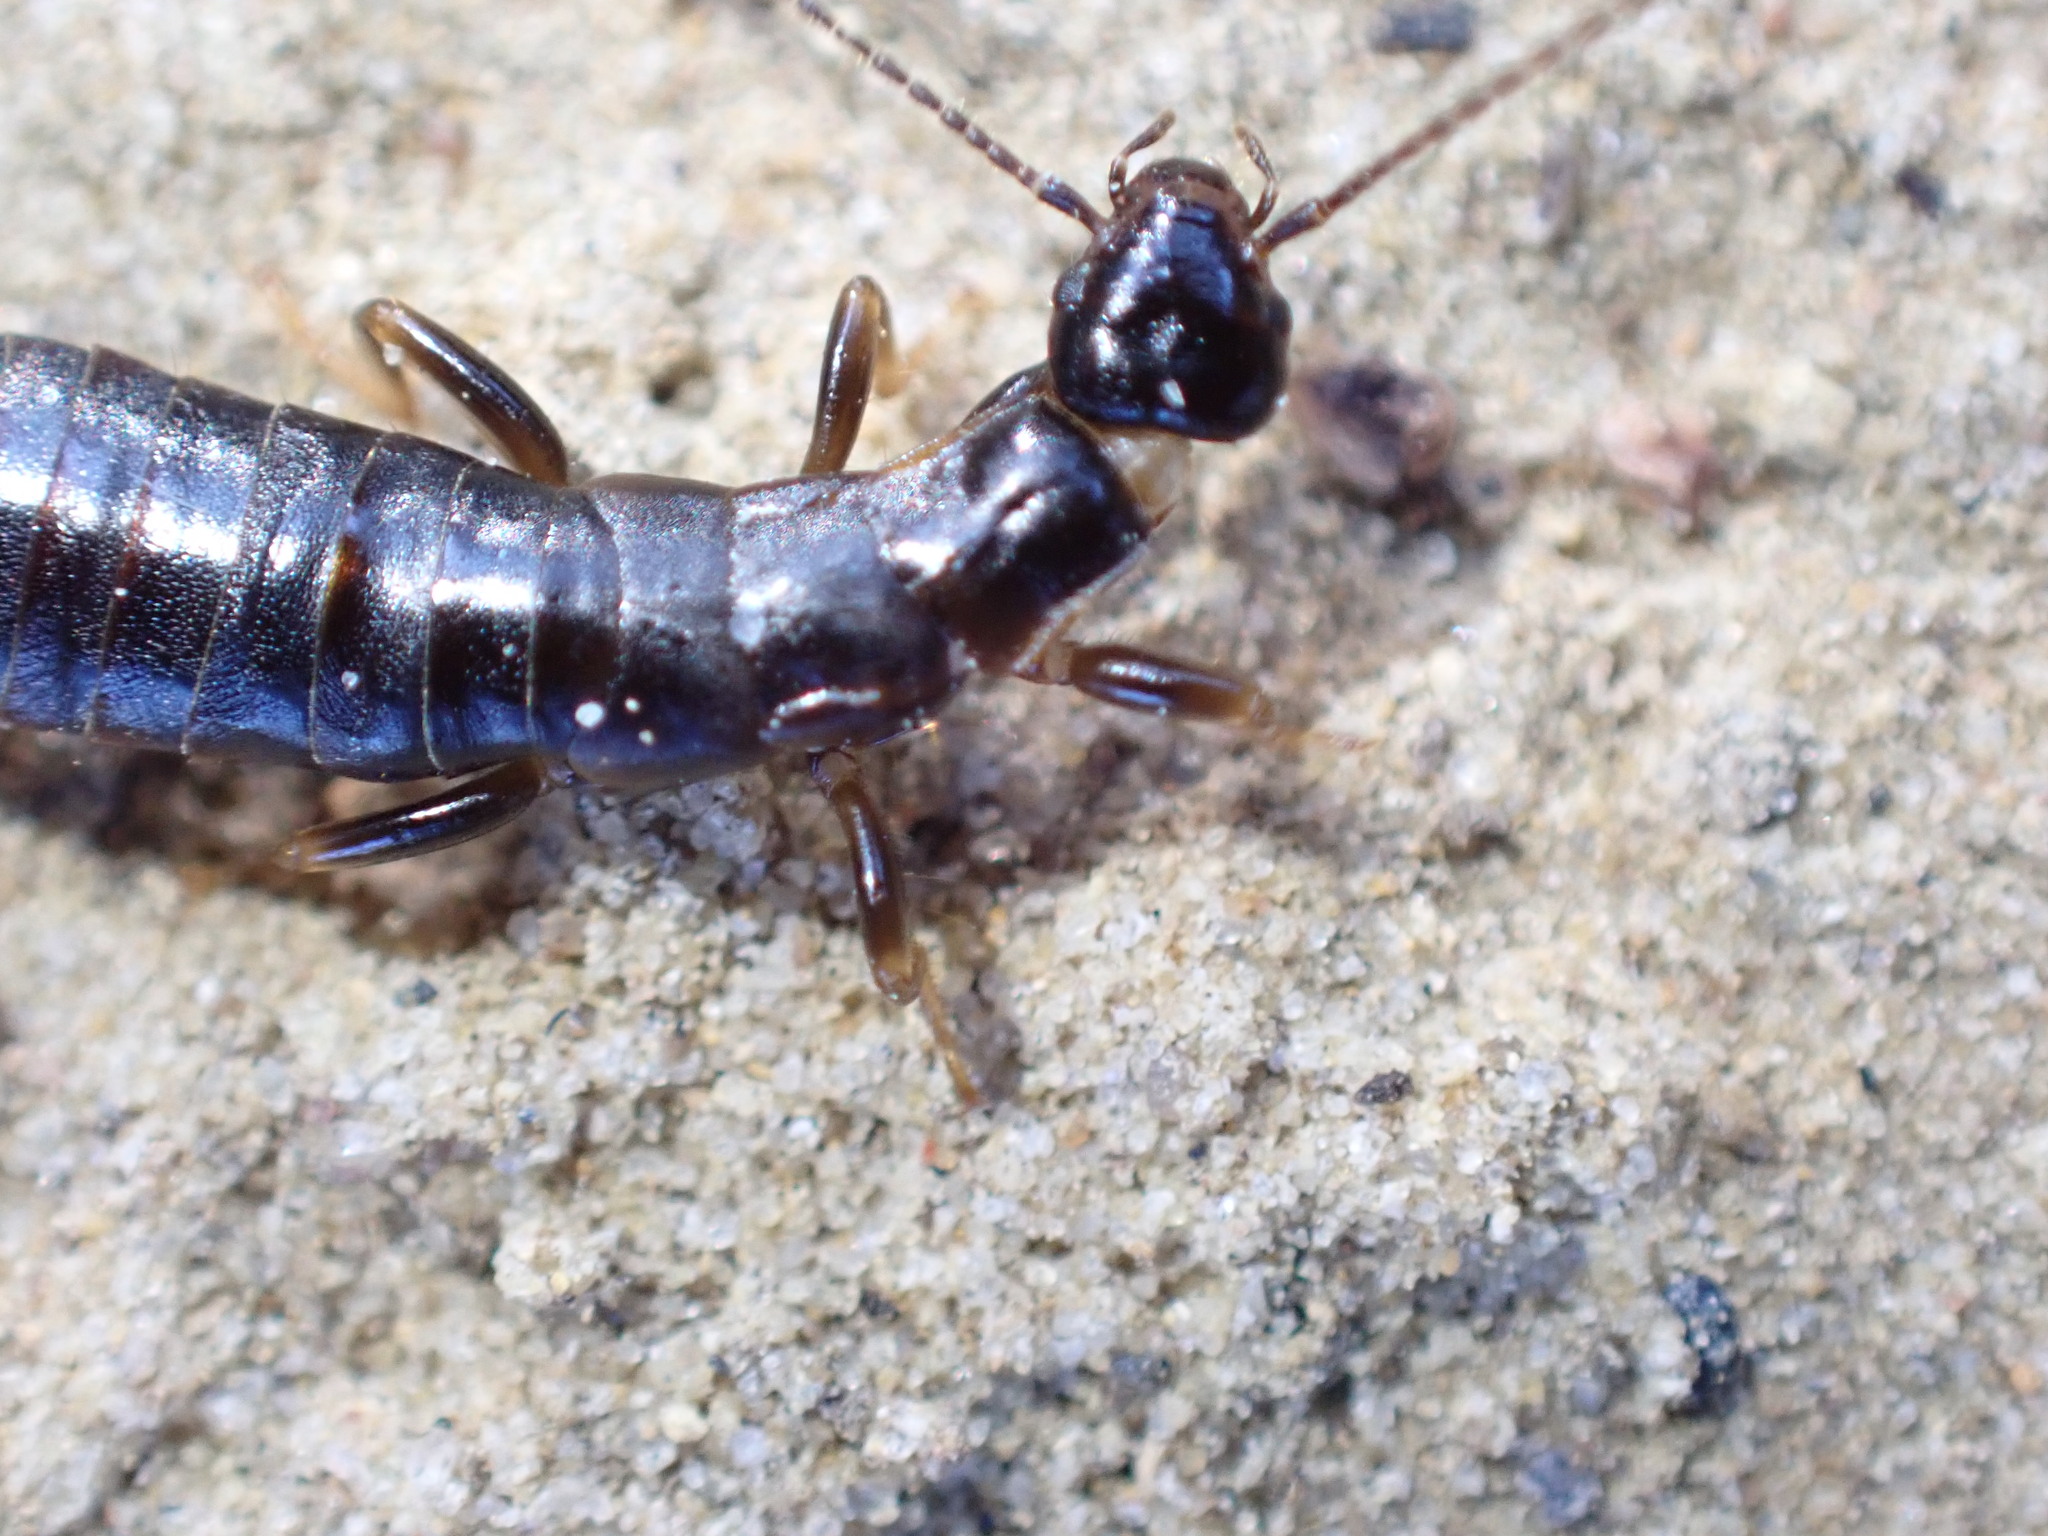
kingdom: Animalia
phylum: Arthropoda
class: Insecta
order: Dermaptera
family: Anisolabididae
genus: Euborellia
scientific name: Euborellia moesta
